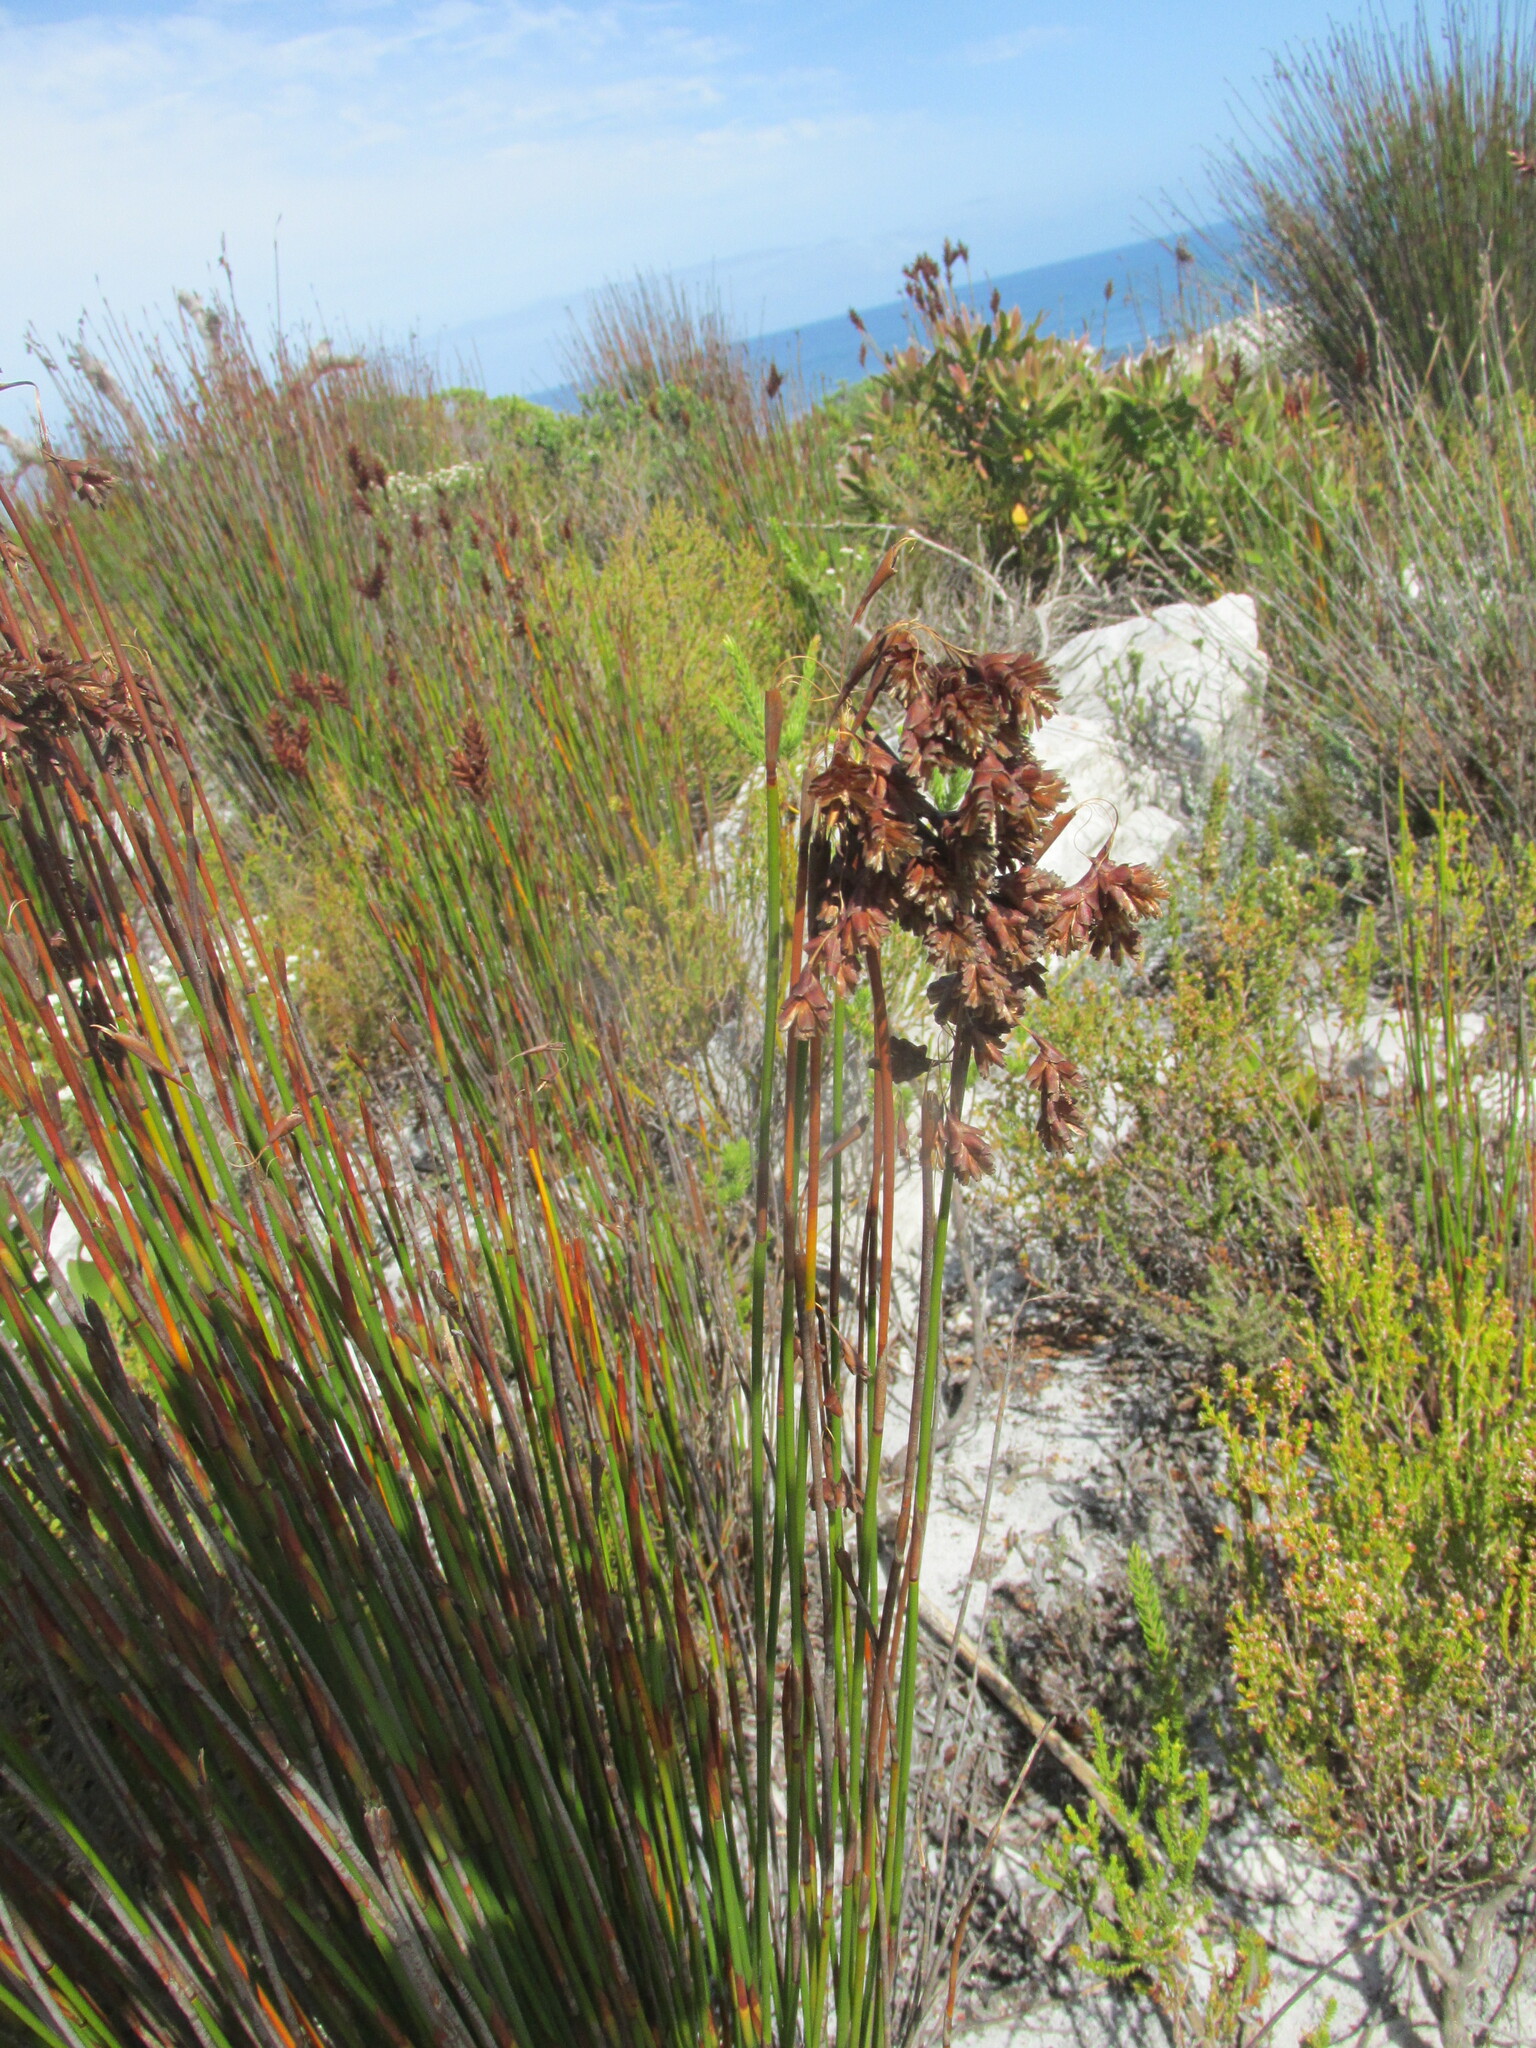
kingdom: Plantae
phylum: Tracheophyta
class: Liliopsida
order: Poales
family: Restionaceae
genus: Staberoha
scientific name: Staberoha banksii
